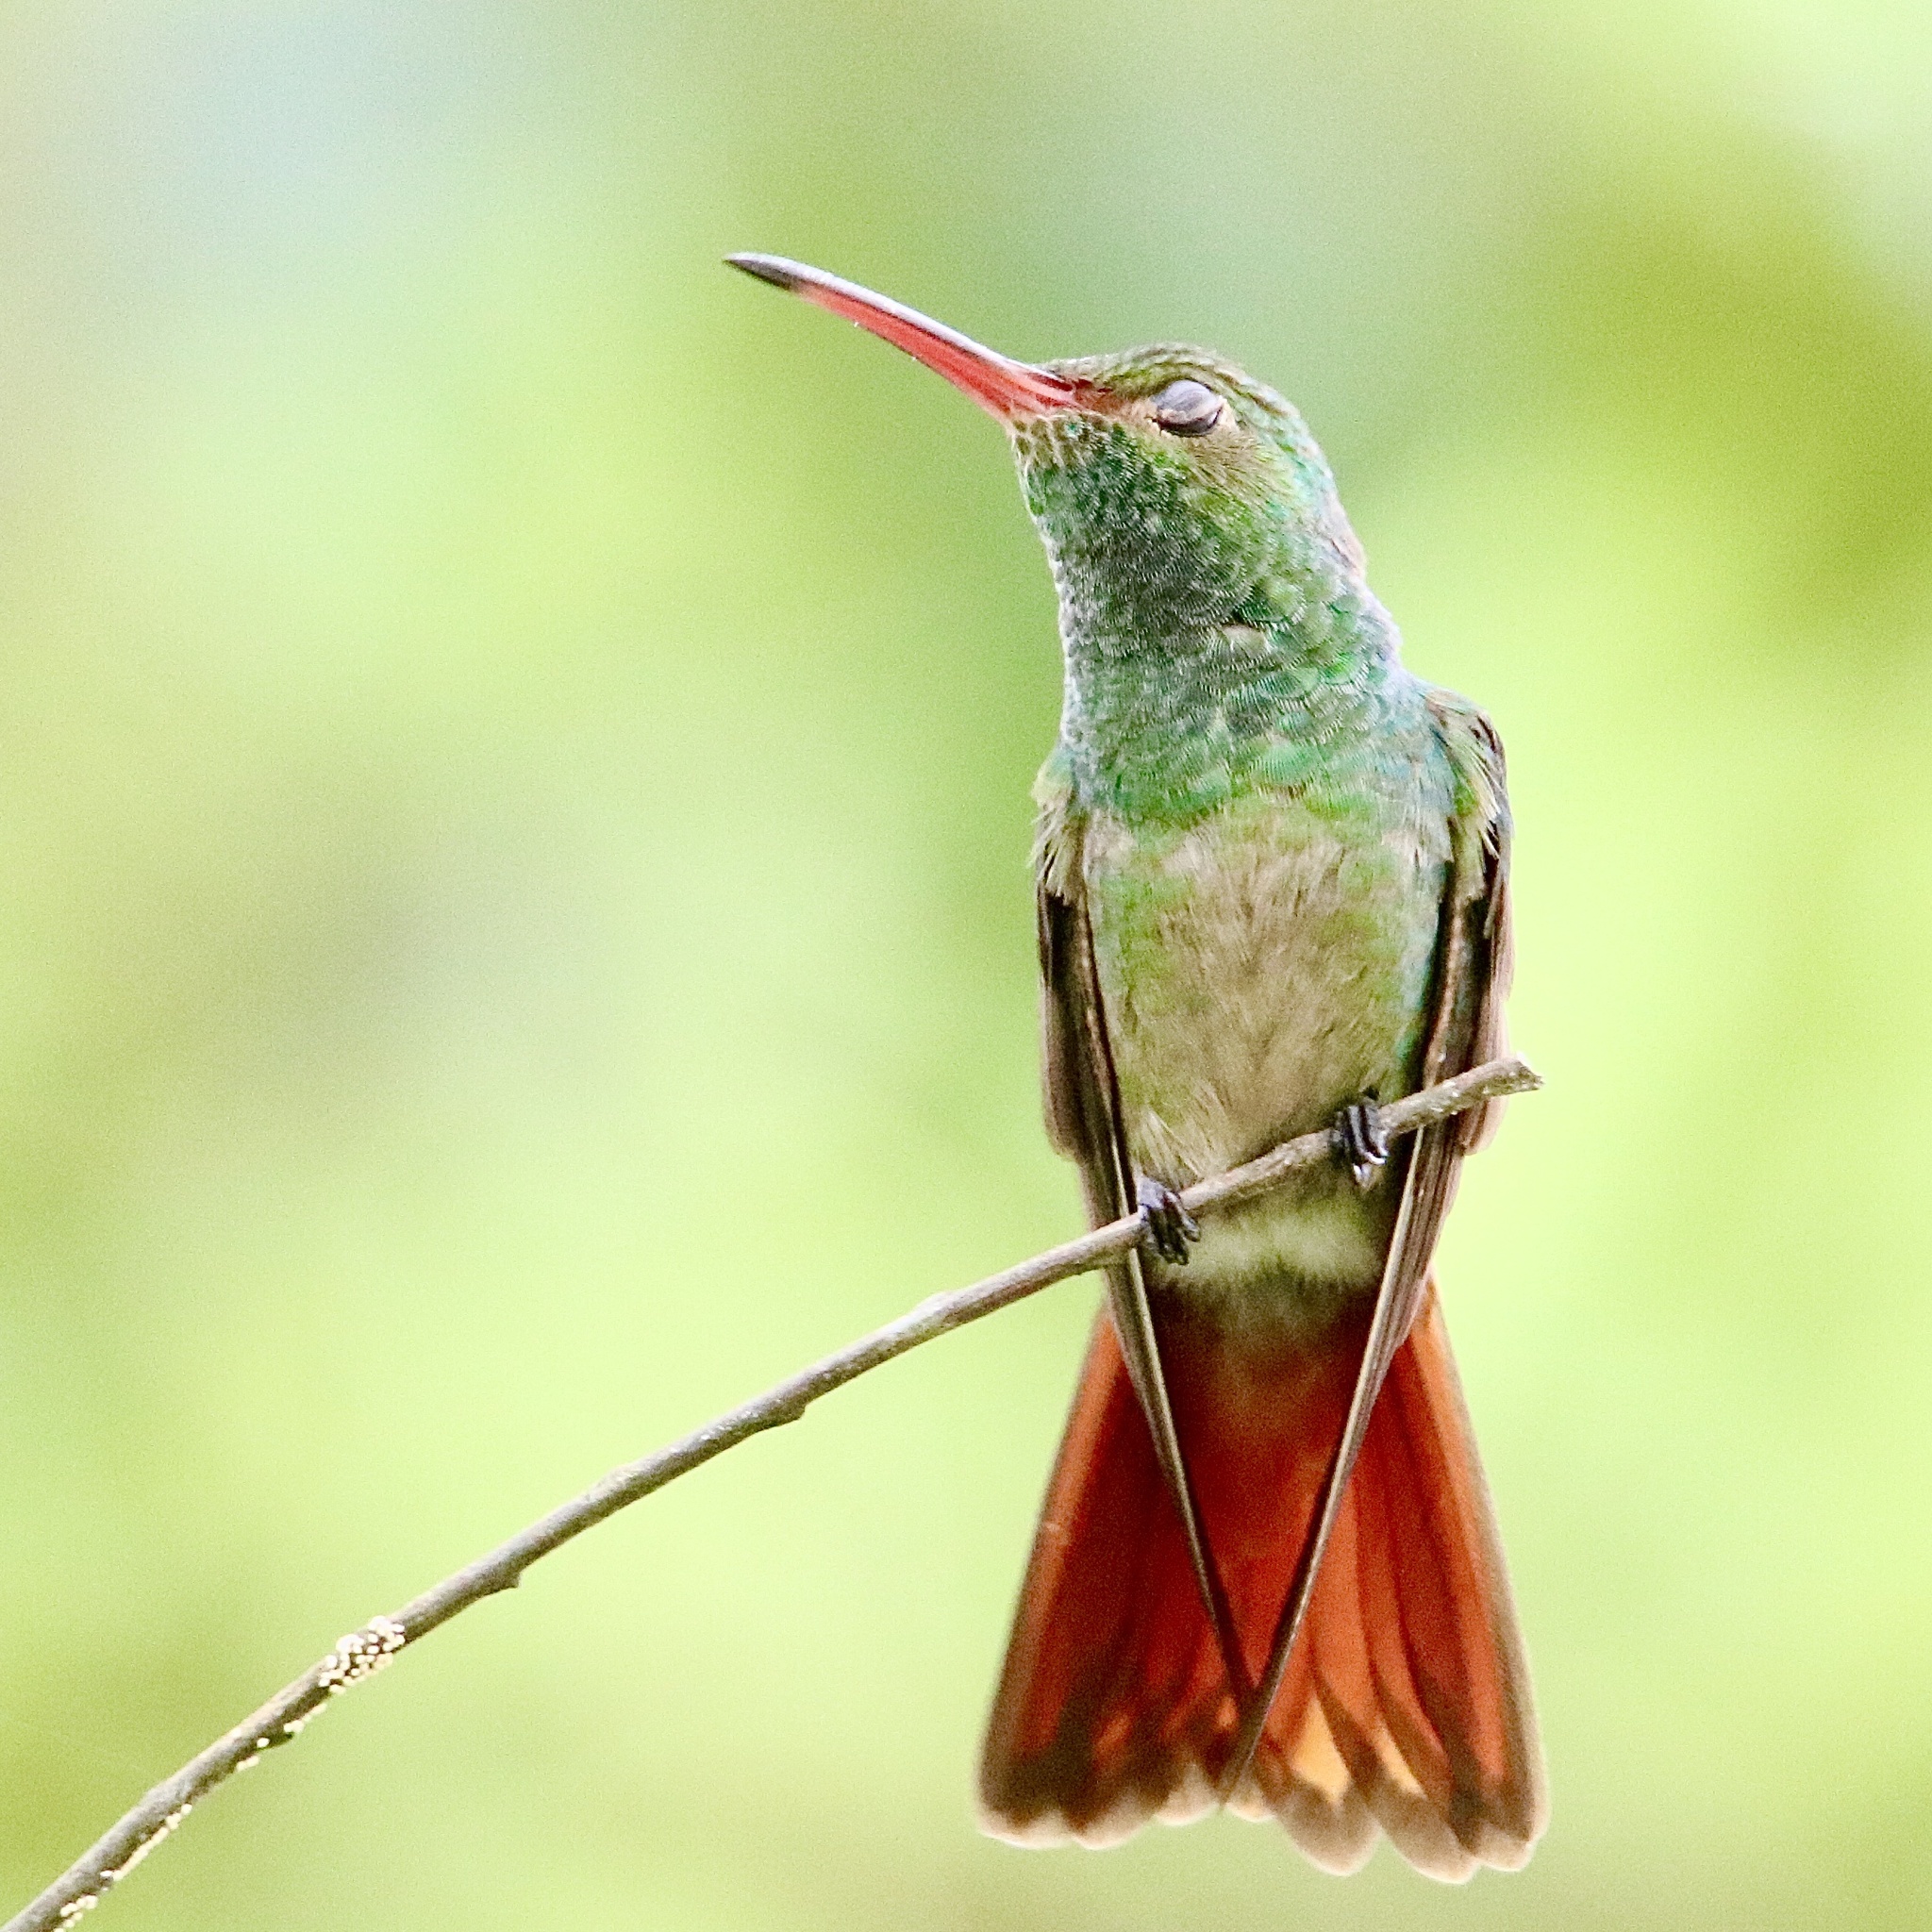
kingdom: Animalia
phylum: Chordata
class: Aves
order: Apodiformes
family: Trochilidae
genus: Amazilia
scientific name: Amazilia tzacatl
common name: Rufous-tailed hummingbird
